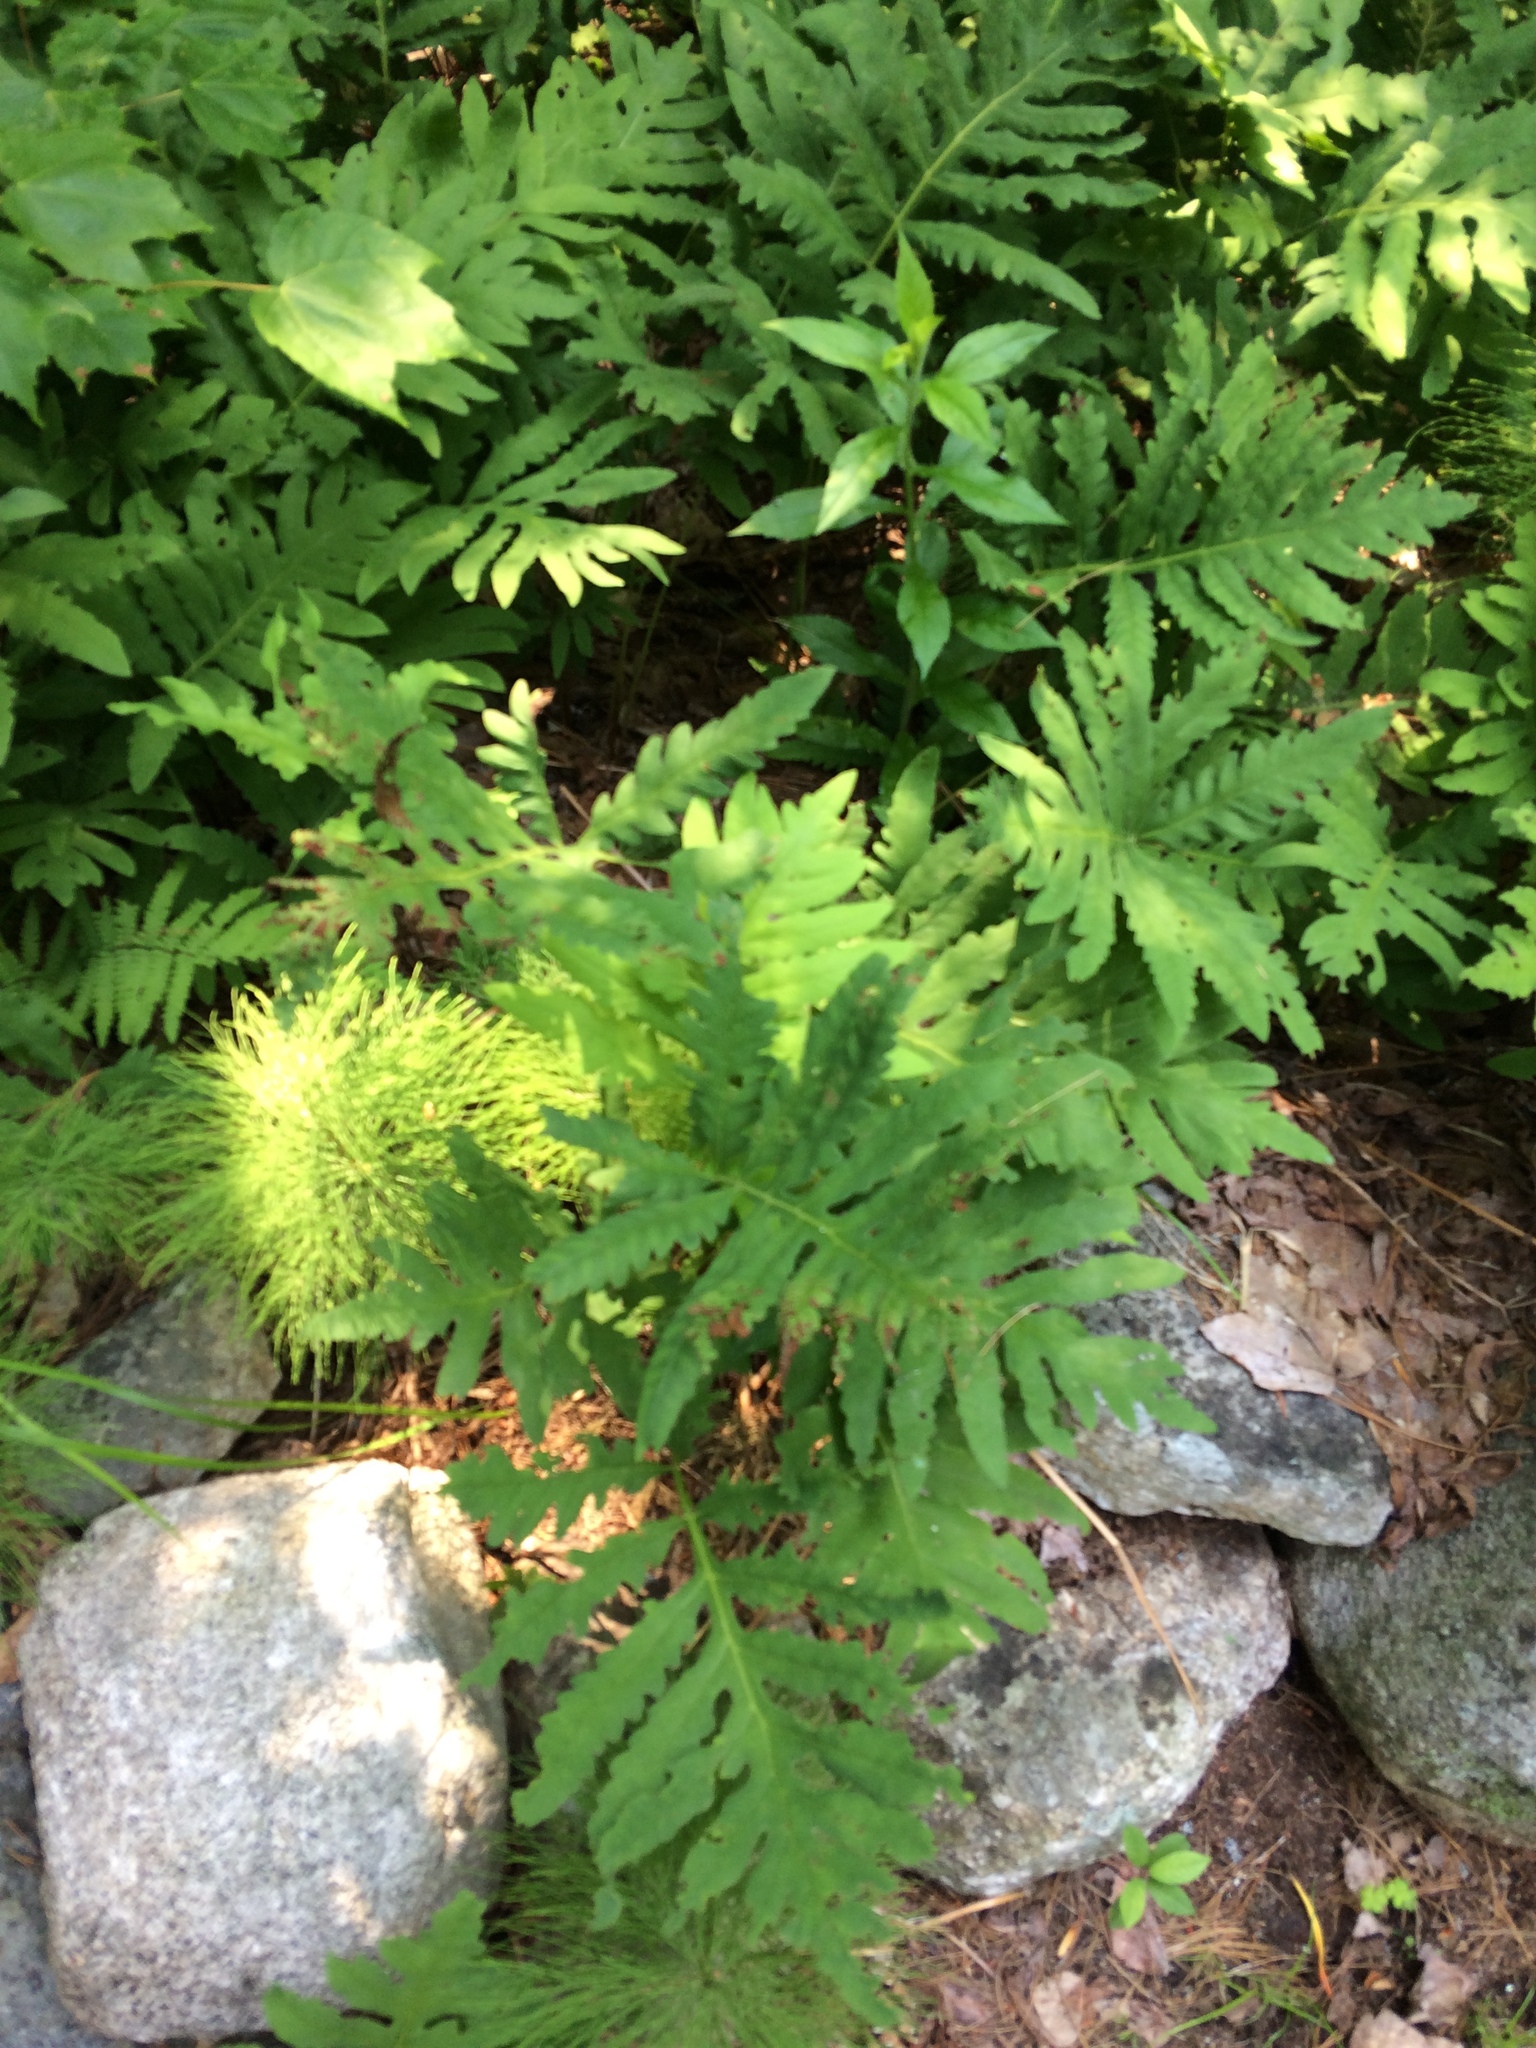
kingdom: Plantae
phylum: Tracheophyta
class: Polypodiopsida
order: Polypodiales
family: Onocleaceae
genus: Onoclea
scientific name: Onoclea sensibilis
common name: Sensitive fern
